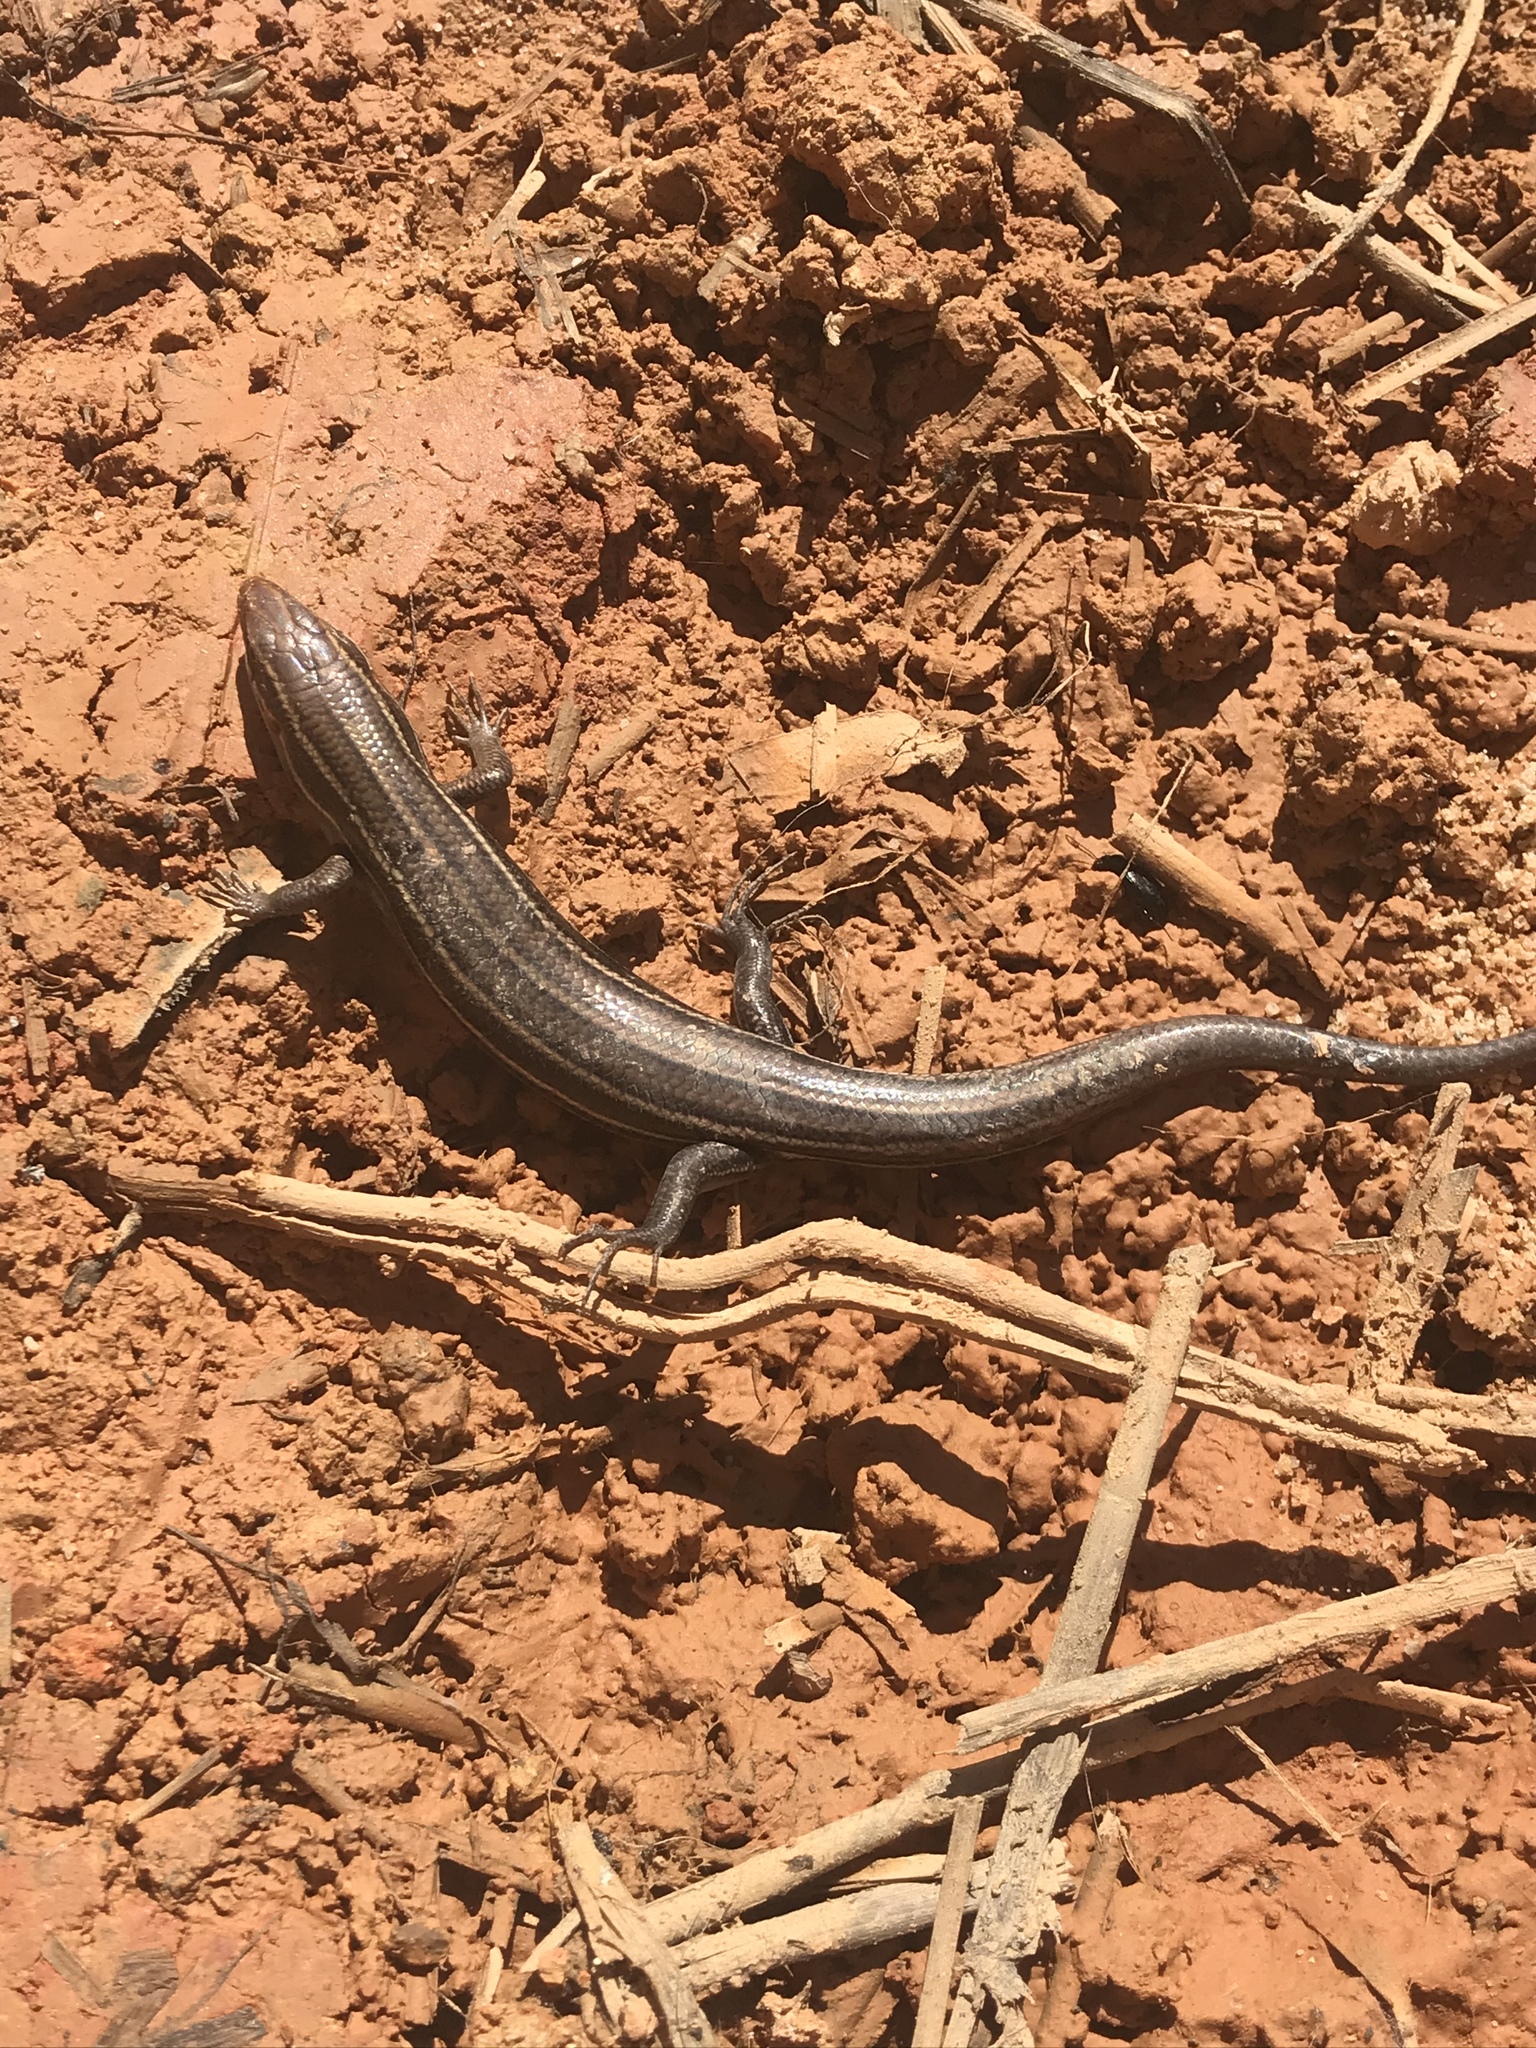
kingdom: Animalia
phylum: Chordata
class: Squamata
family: Scincidae
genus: Plestiodon
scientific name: Plestiodon inexpectatus
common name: Southeastern five-lined skink
